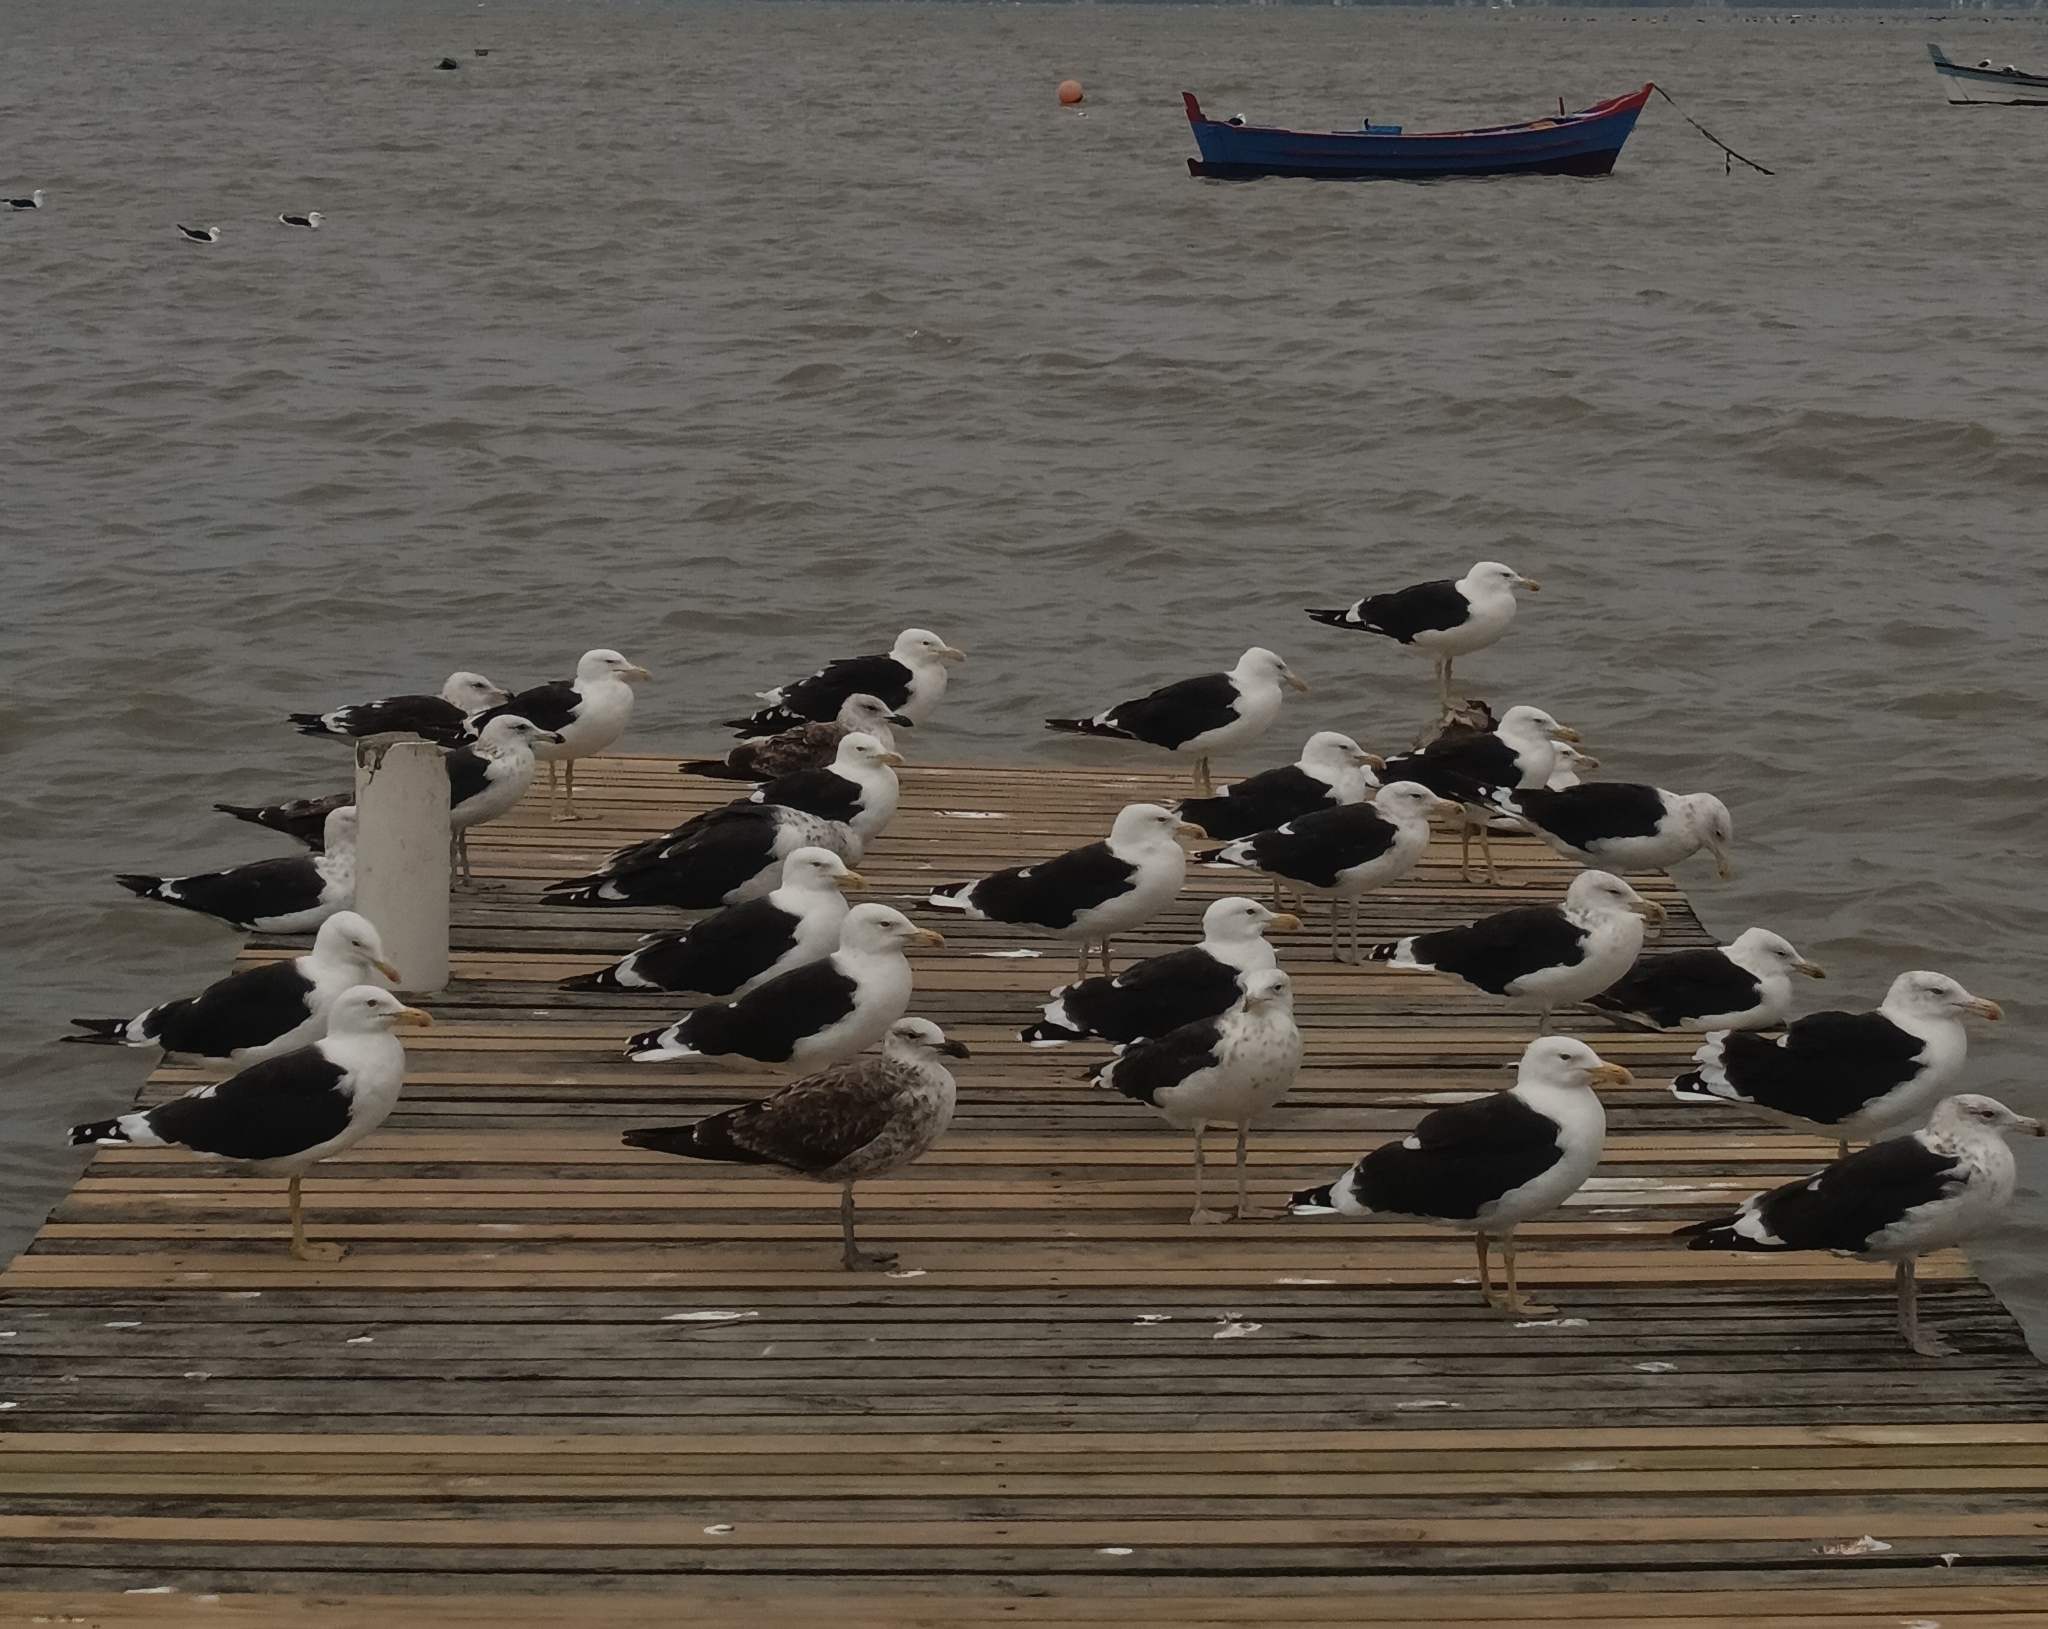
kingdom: Animalia
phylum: Chordata
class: Aves
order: Charadriiformes
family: Laridae
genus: Larus
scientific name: Larus dominicanus
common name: Kelp gull
